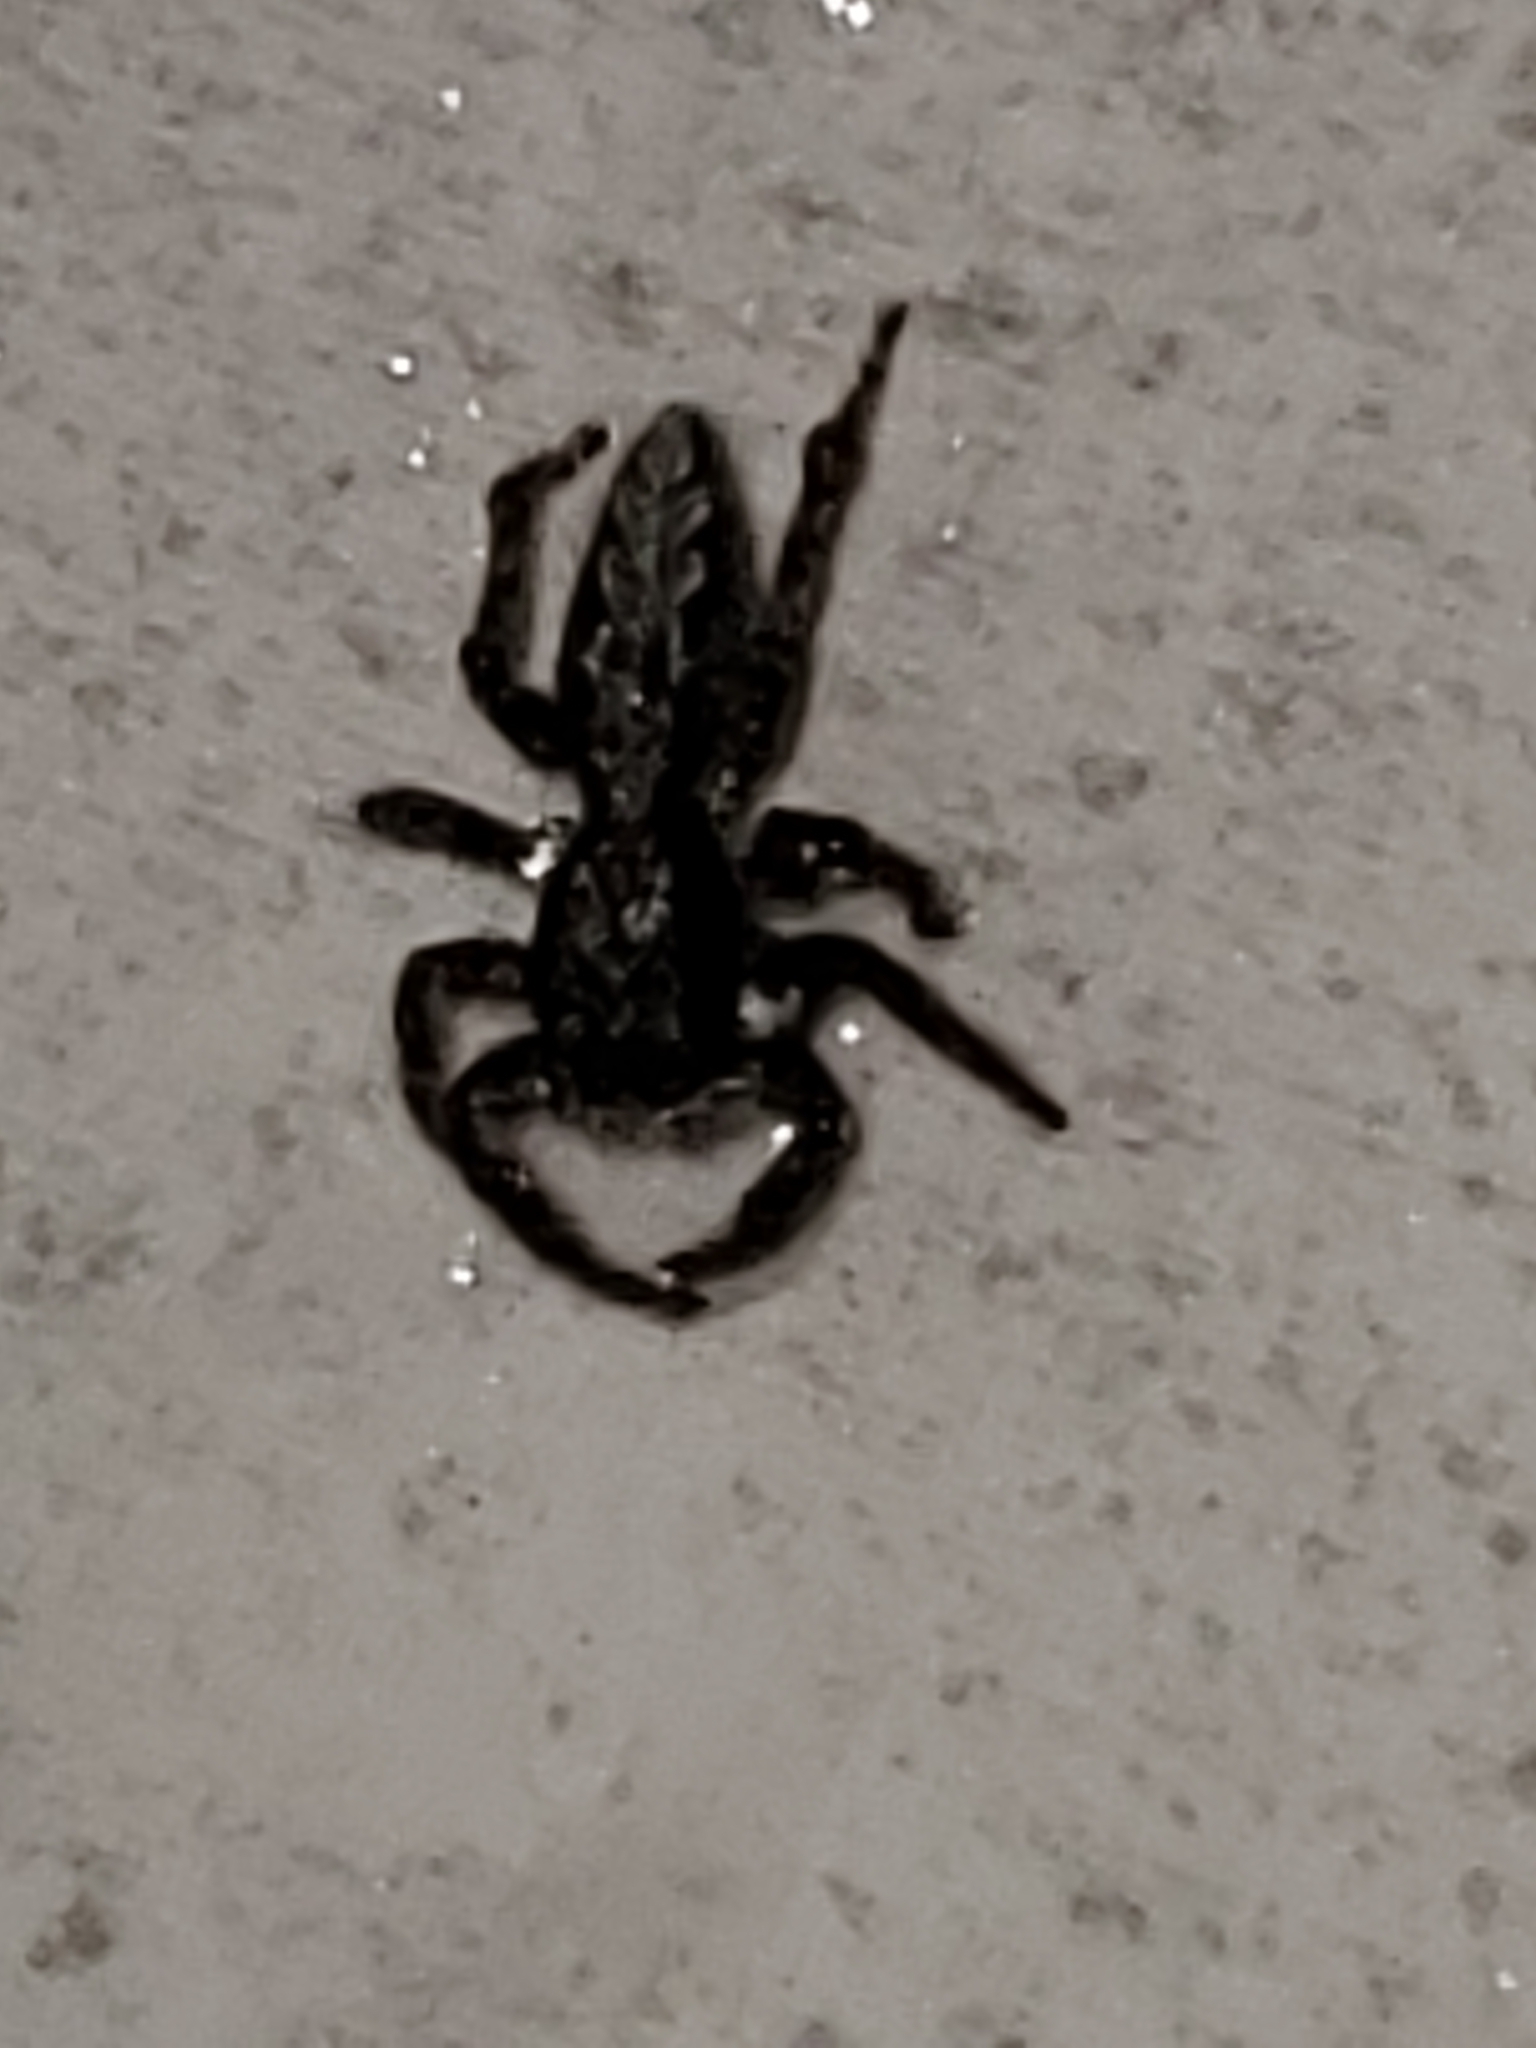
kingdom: Animalia
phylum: Arthropoda
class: Arachnida
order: Araneae
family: Salticidae
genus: Platycryptus
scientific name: Platycryptus californicus
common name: Jumping spiders
